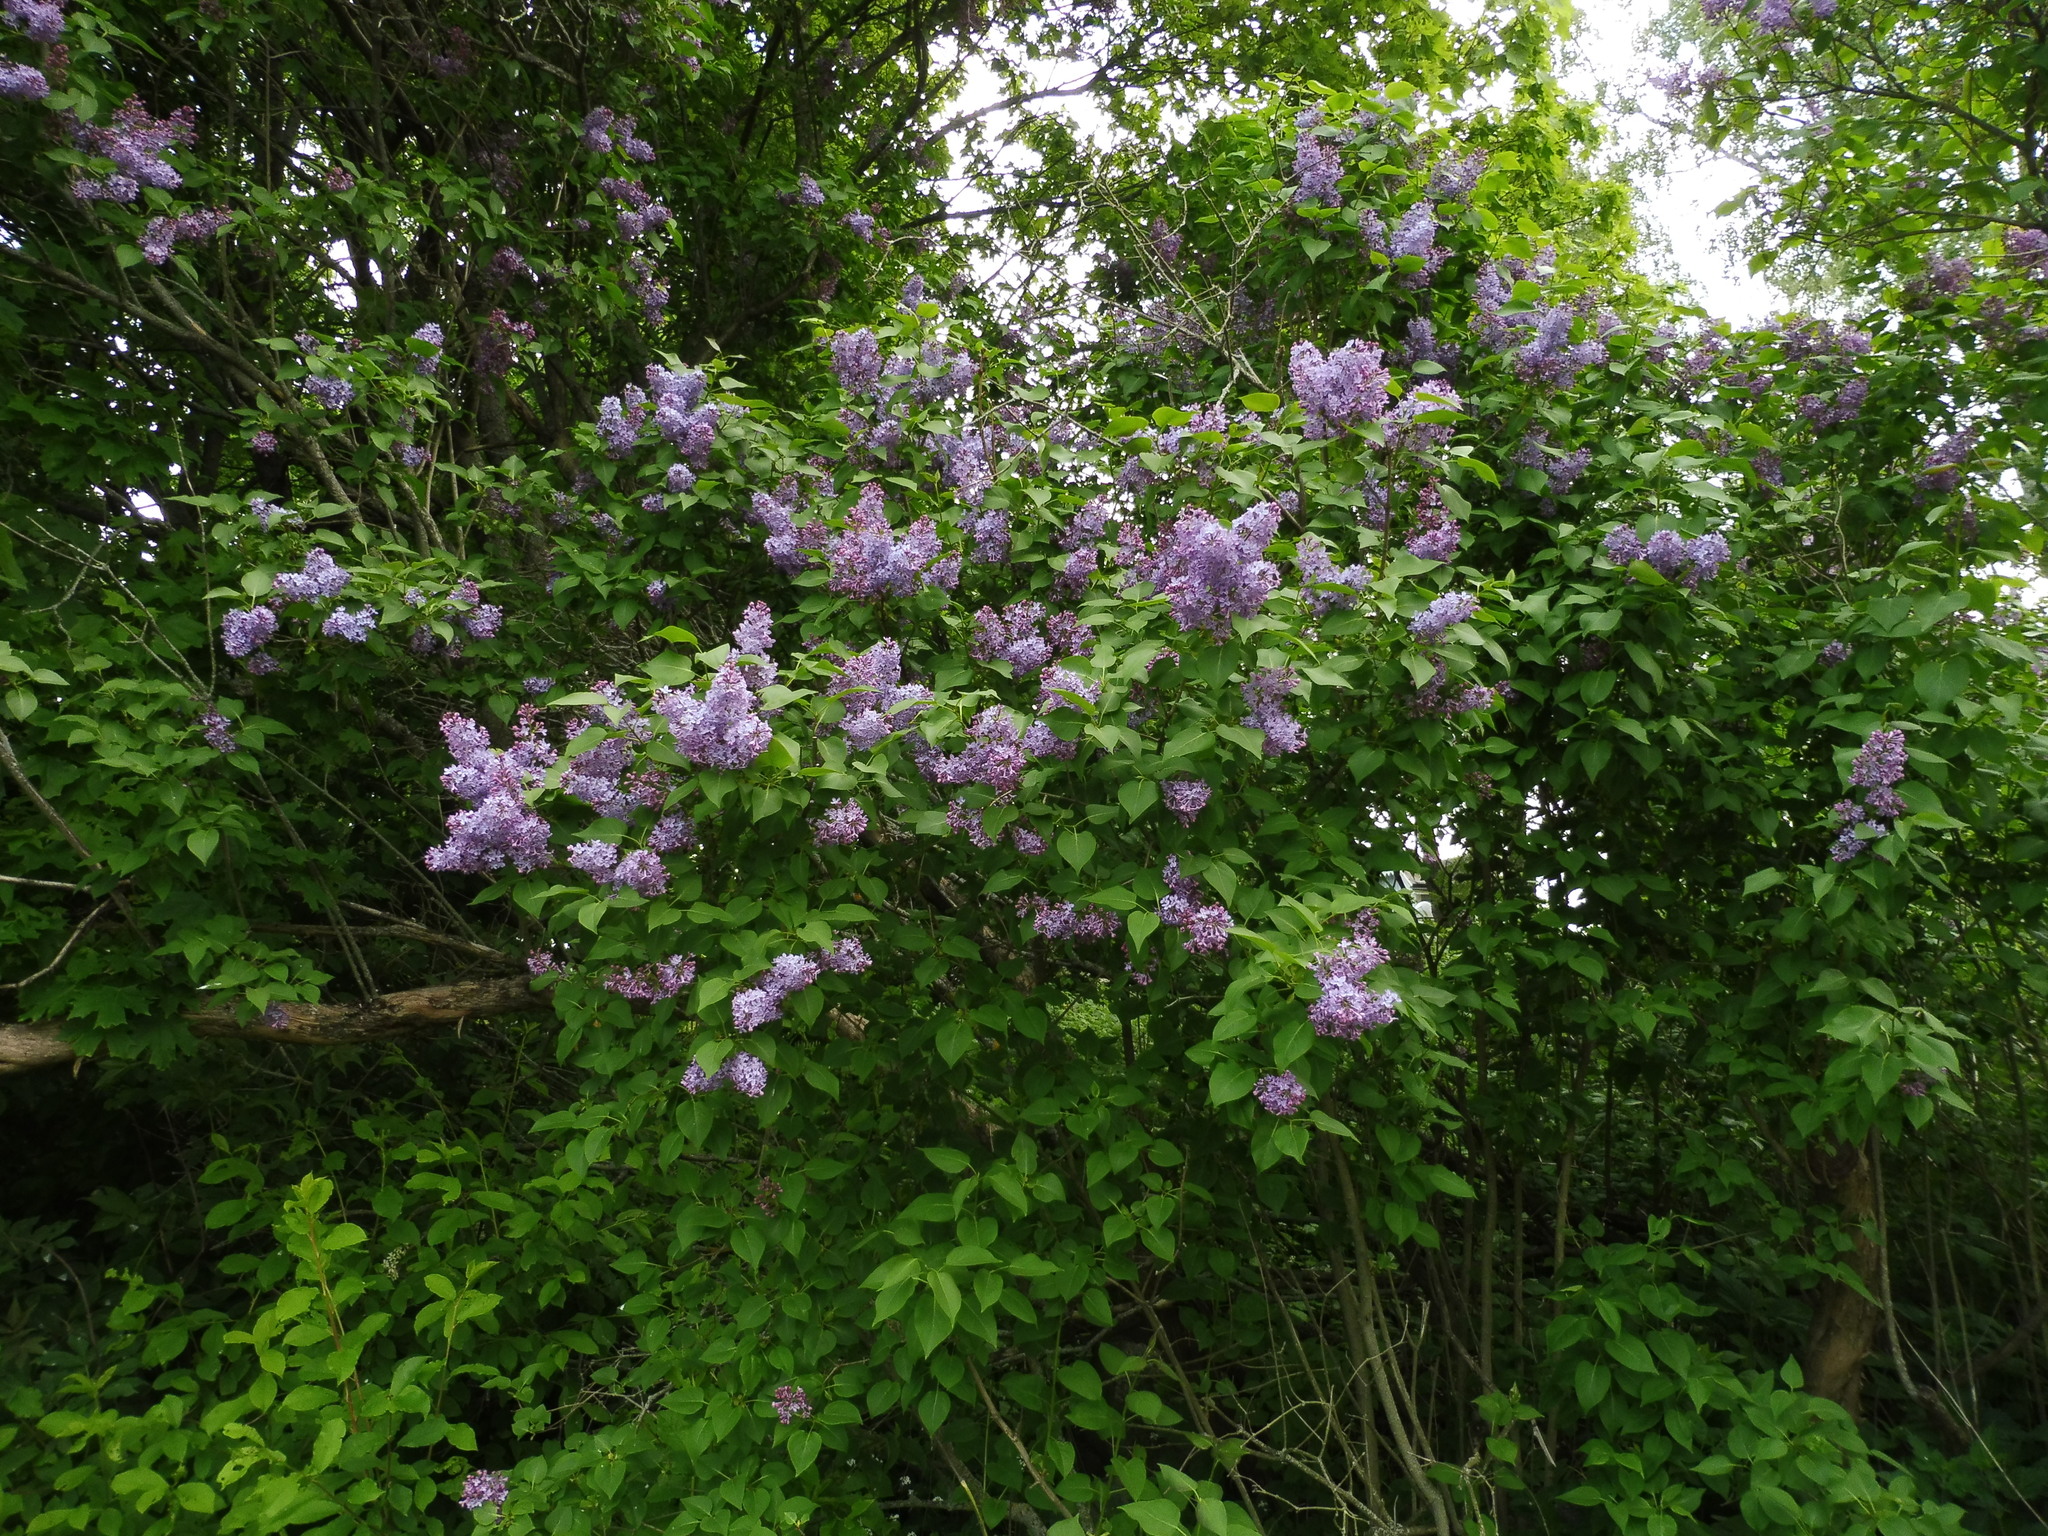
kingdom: Plantae
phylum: Tracheophyta
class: Magnoliopsida
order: Lamiales
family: Oleaceae
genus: Syringa
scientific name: Syringa vulgaris
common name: Common lilac
